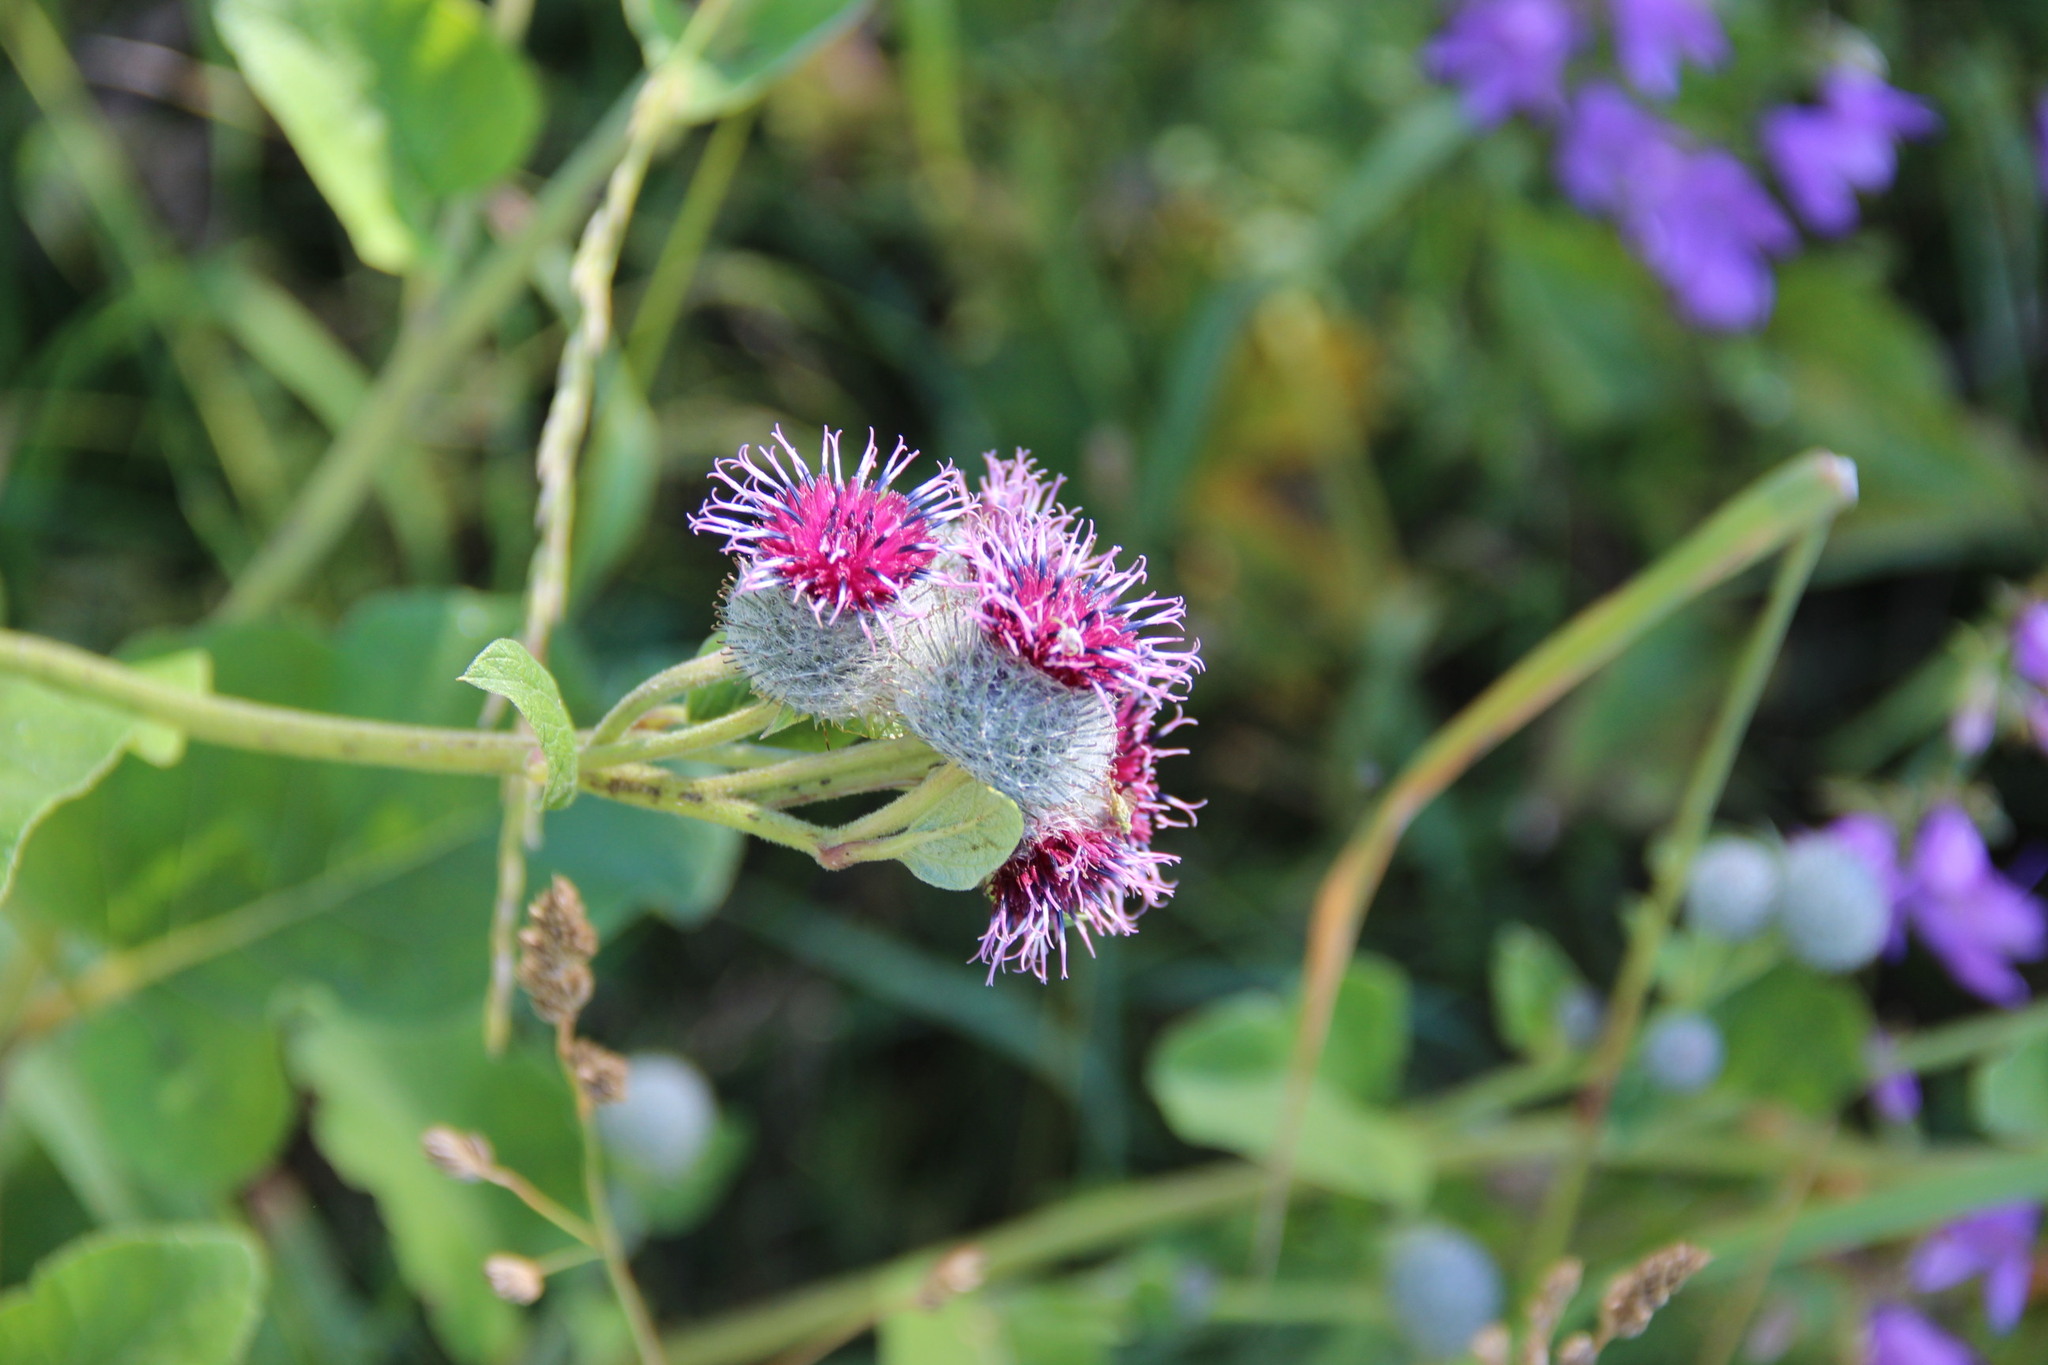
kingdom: Plantae
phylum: Tracheophyta
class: Magnoliopsida
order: Asterales
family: Asteraceae
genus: Arctium
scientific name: Arctium tomentosum
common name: Woolly burdock
